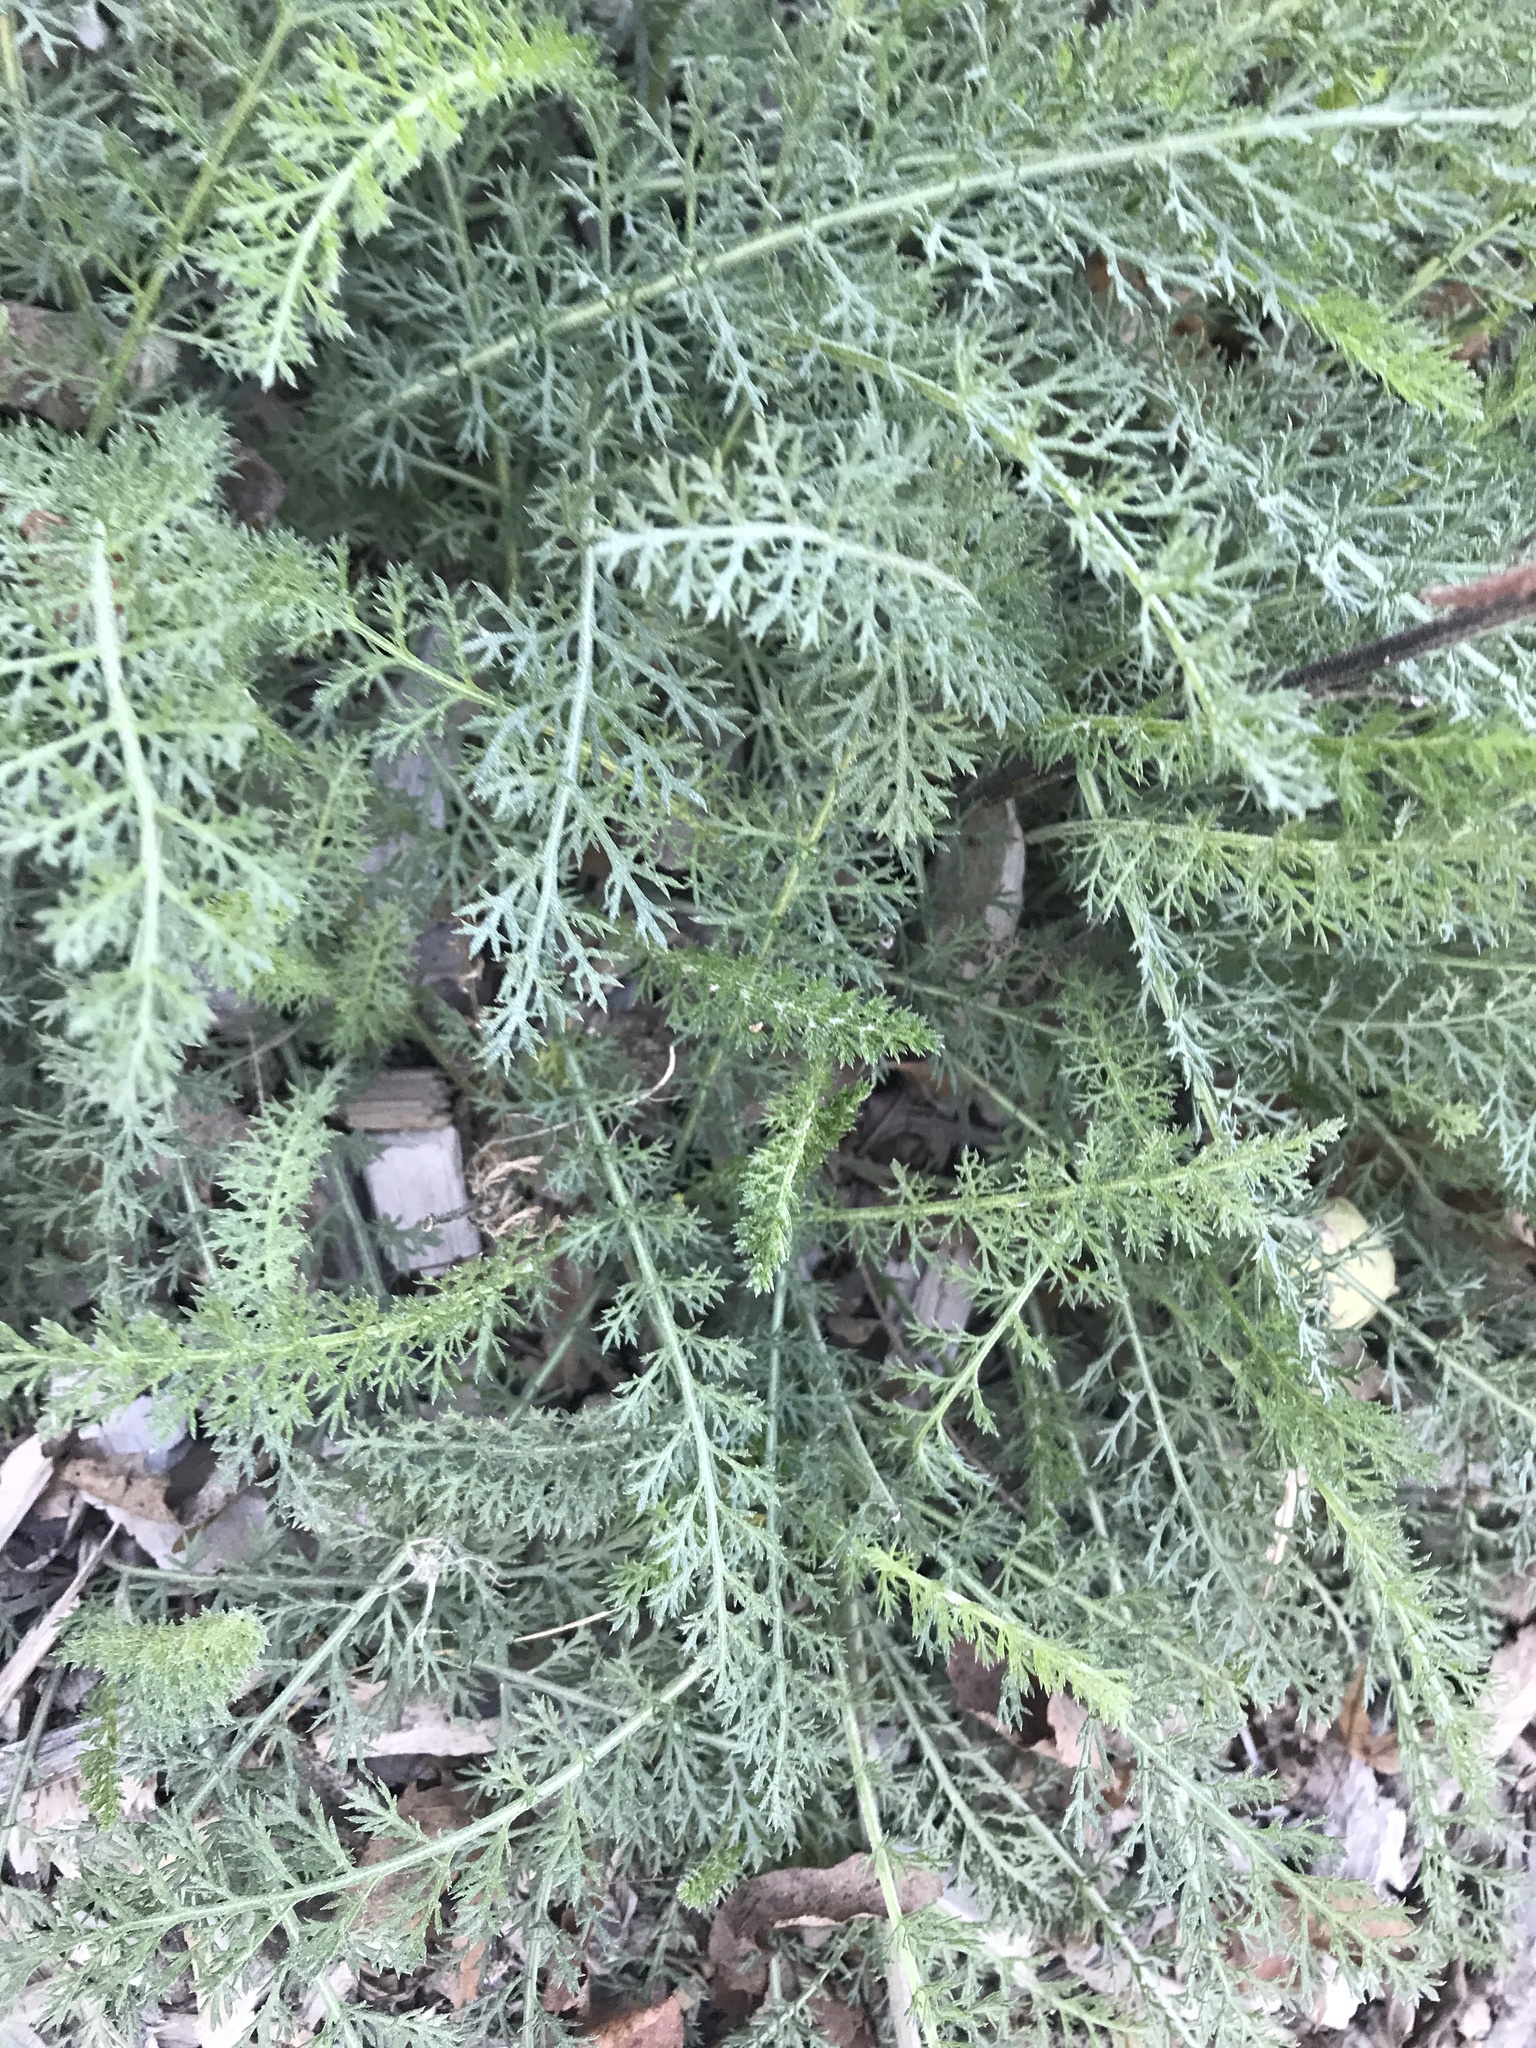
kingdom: Plantae
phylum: Tracheophyta
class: Magnoliopsida
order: Asterales
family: Asteraceae
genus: Achillea
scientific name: Achillea millefolium
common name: Yarrow
